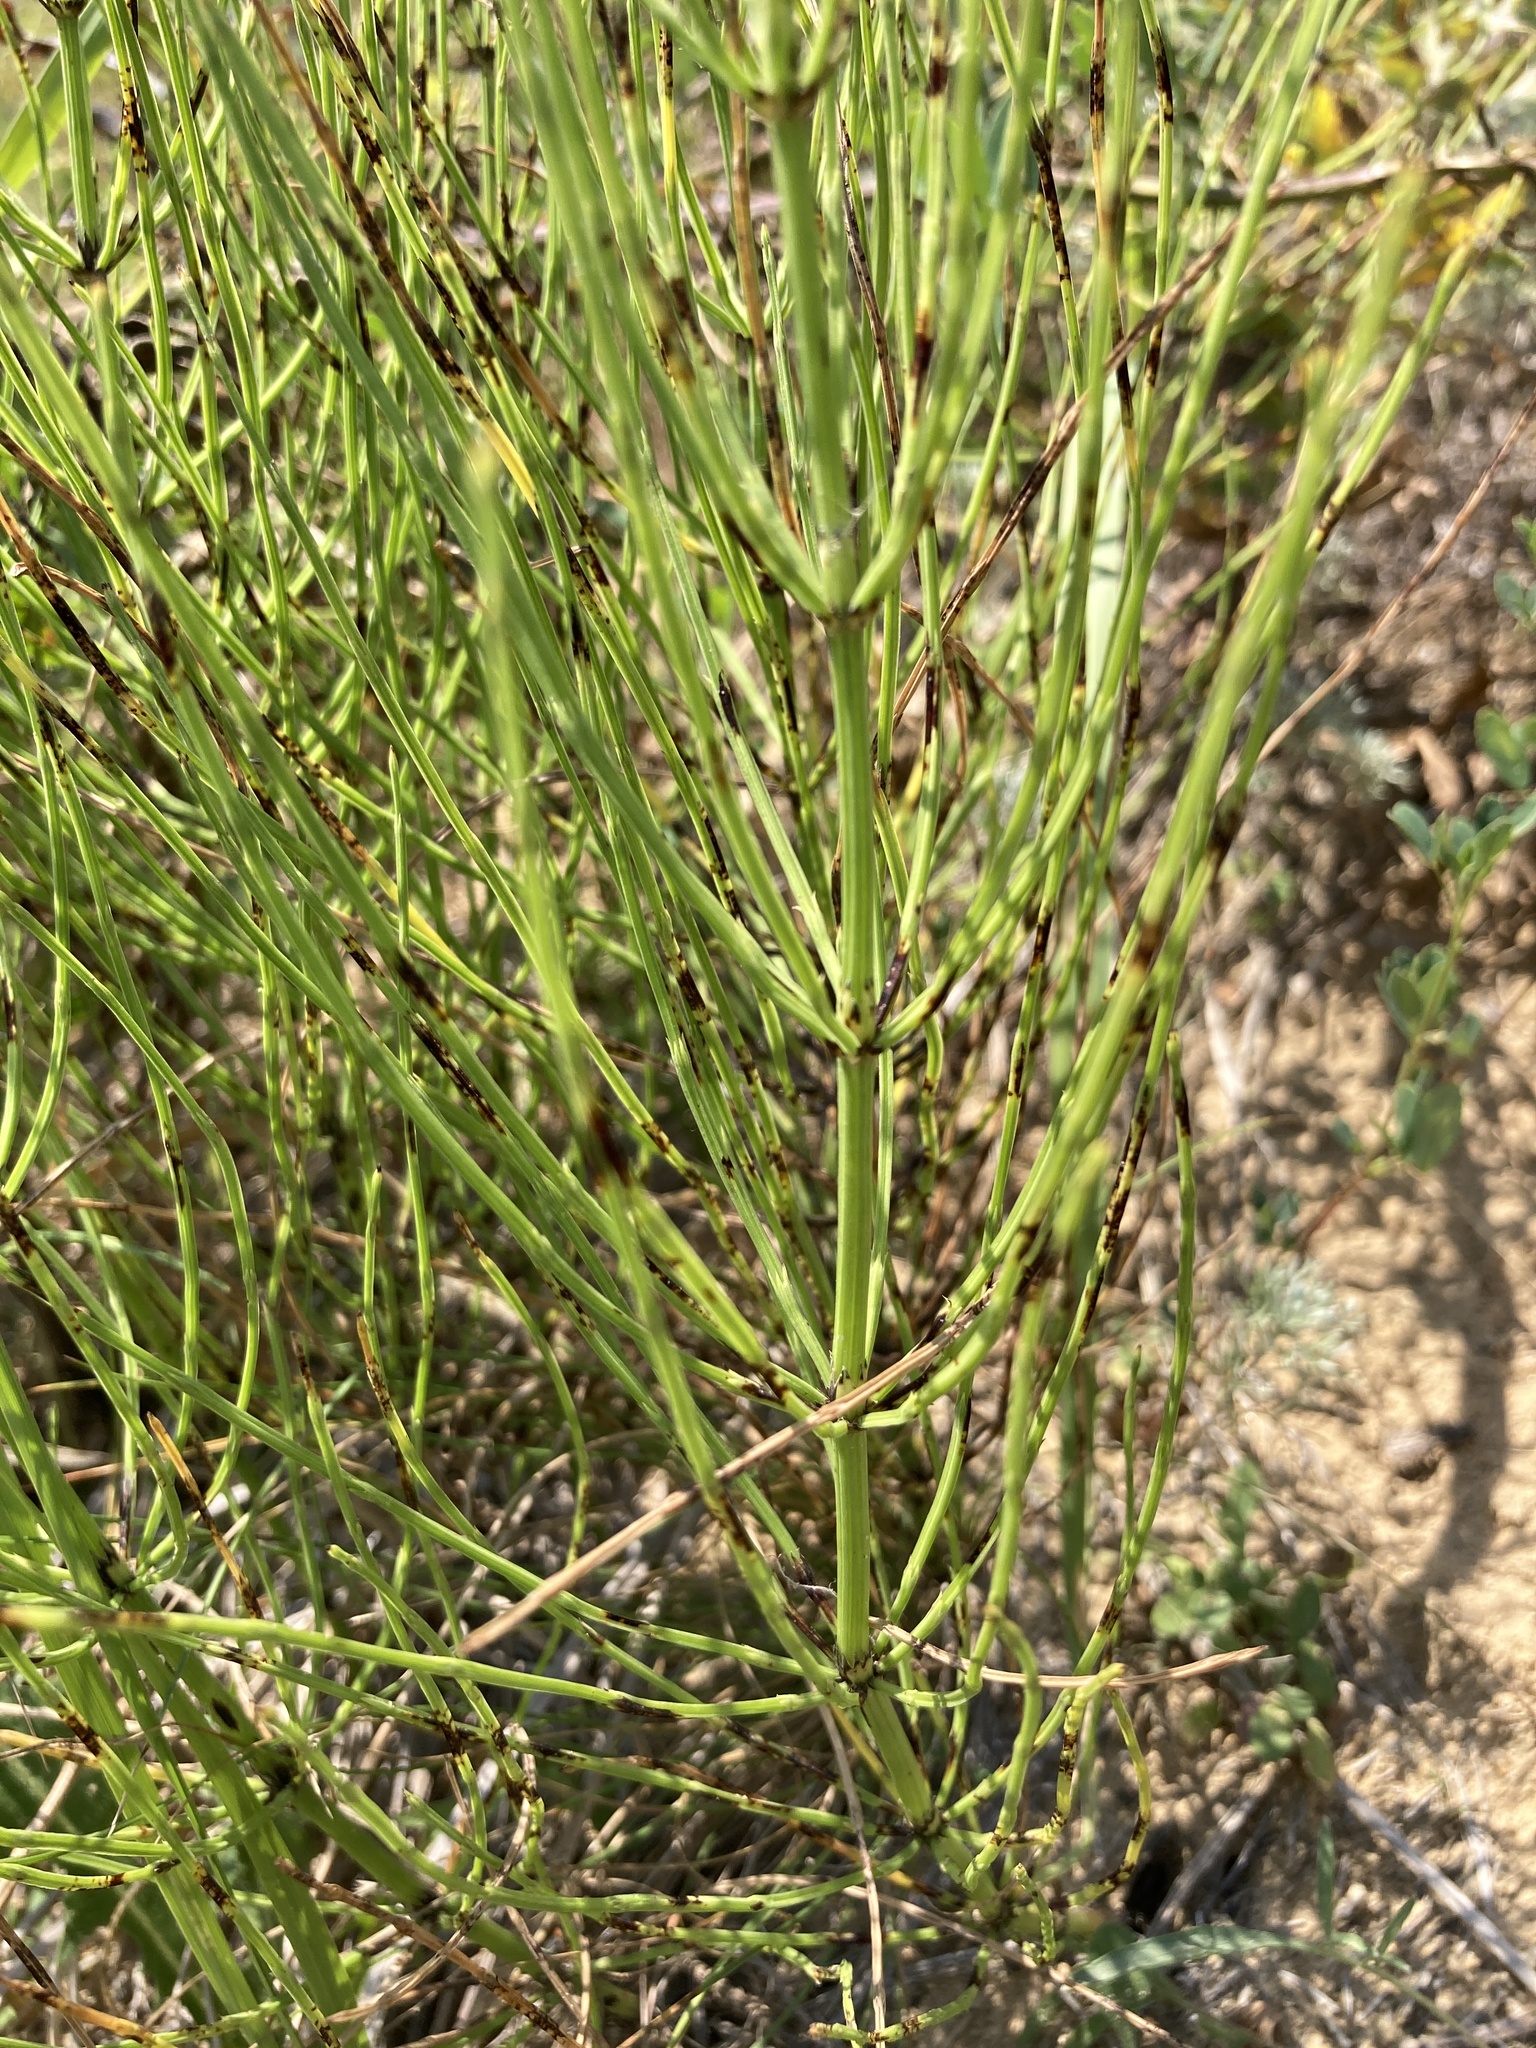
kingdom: Plantae
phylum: Tracheophyta
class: Polypodiopsida
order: Equisetales
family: Equisetaceae
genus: Equisetum
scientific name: Equisetum arvense
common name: Field horsetail
